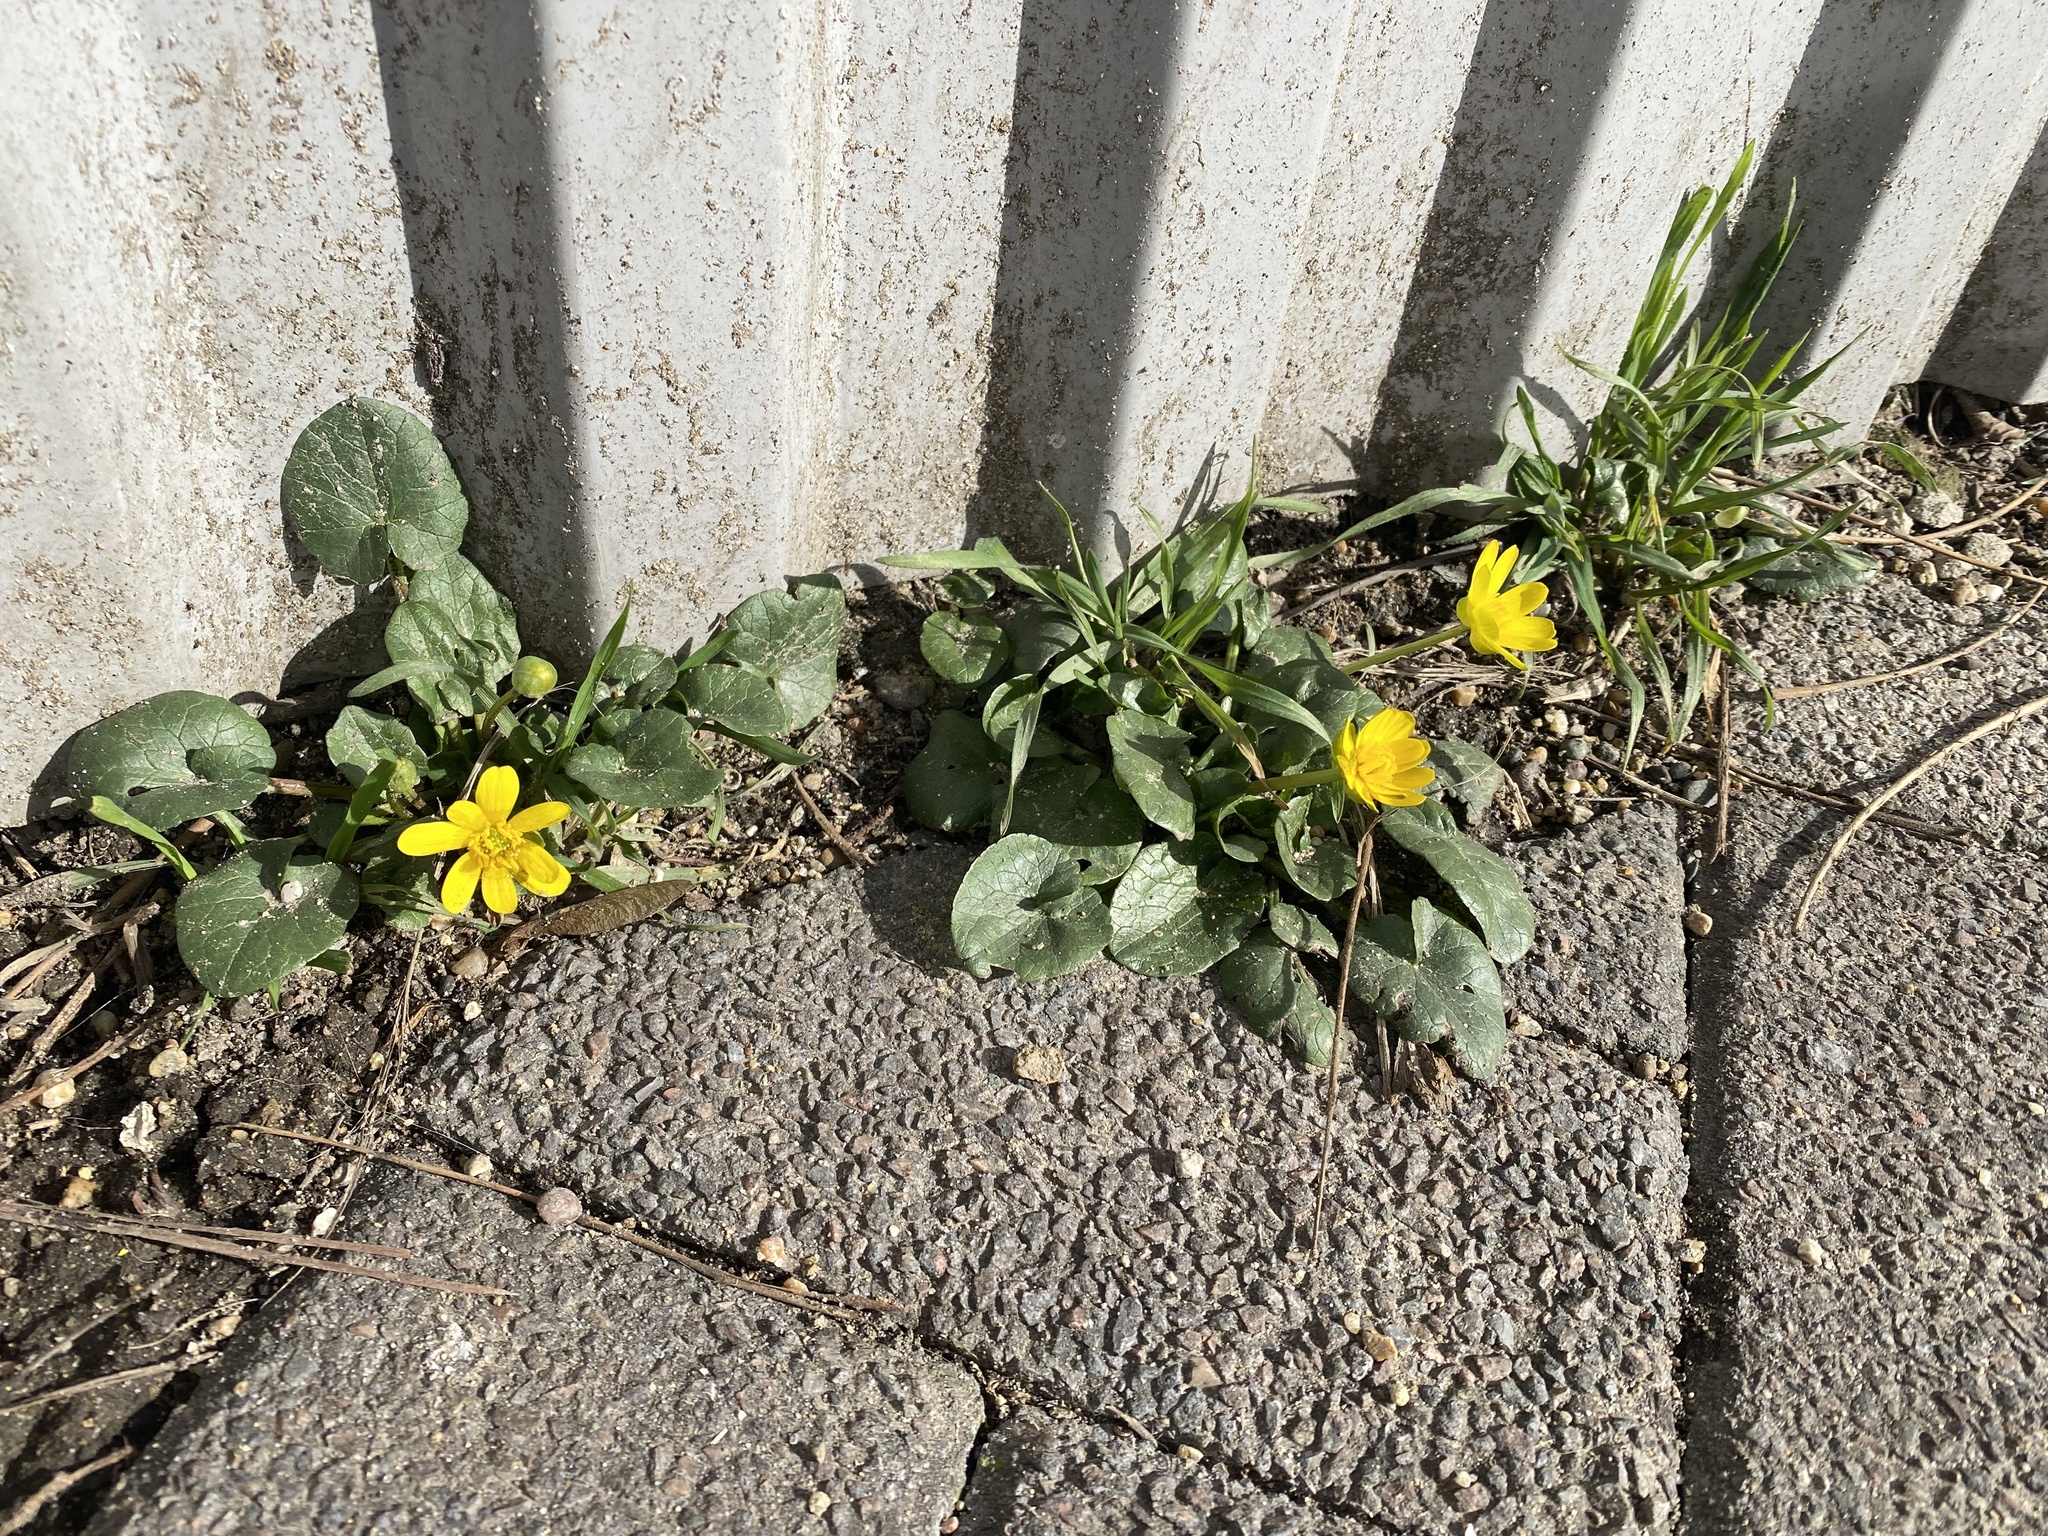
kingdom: Plantae
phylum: Tracheophyta
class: Magnoliopsida
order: Ranunculales
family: Ranunculaceae
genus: Ficaria
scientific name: Ficaria verna
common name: Lesser celandine
